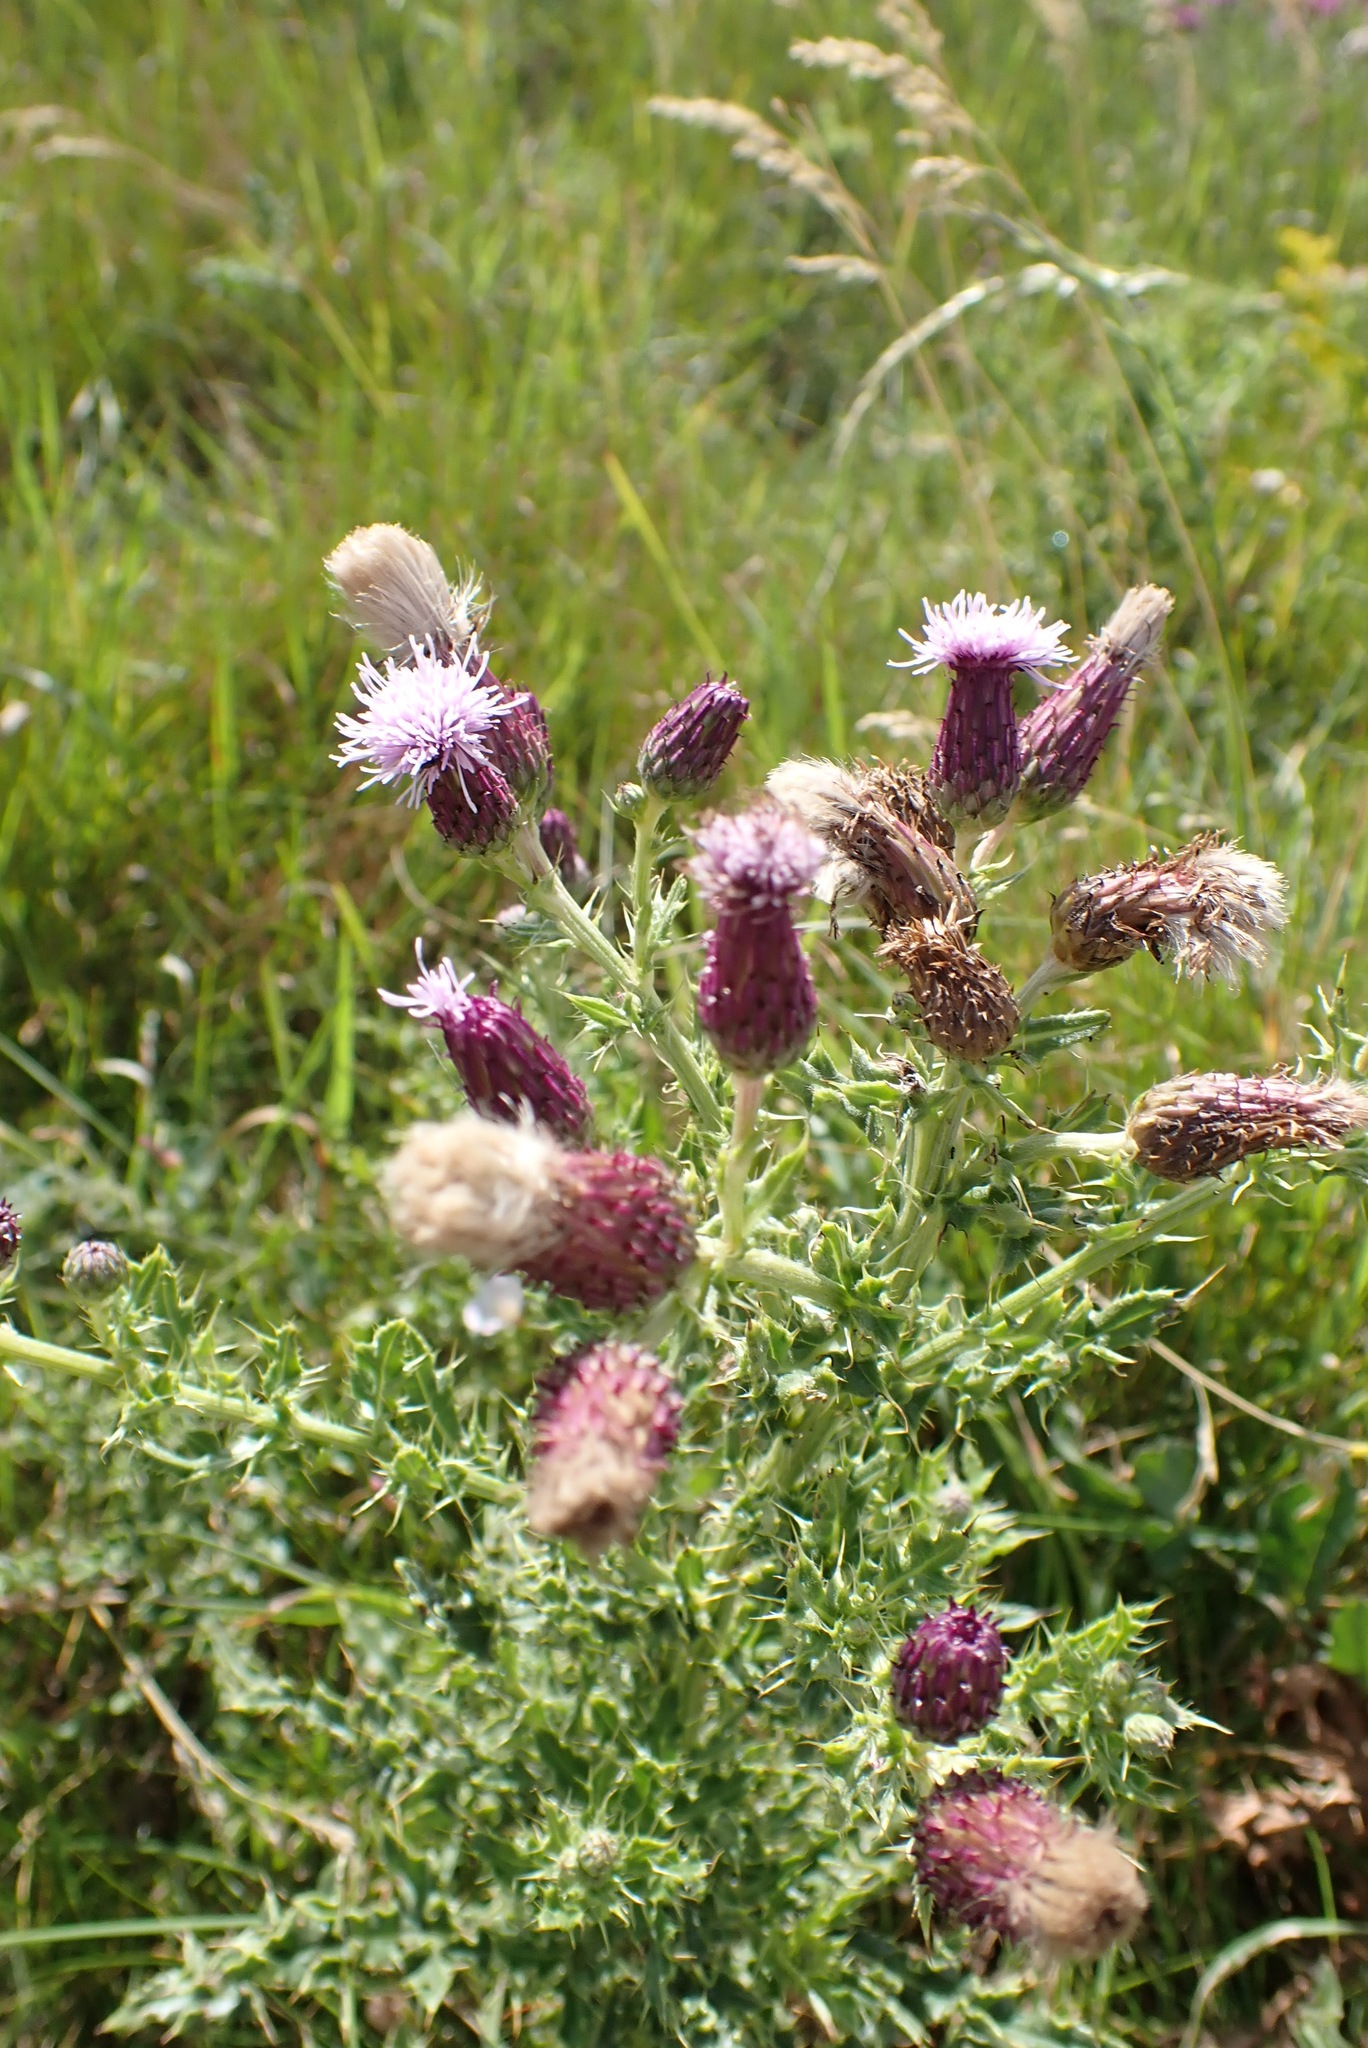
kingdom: Plantae
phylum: Tracheophyta
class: Magnoliopsida
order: Asterales
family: Asteraceae
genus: Cirsium
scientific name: Cirsium arvense
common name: Creeping thistle
